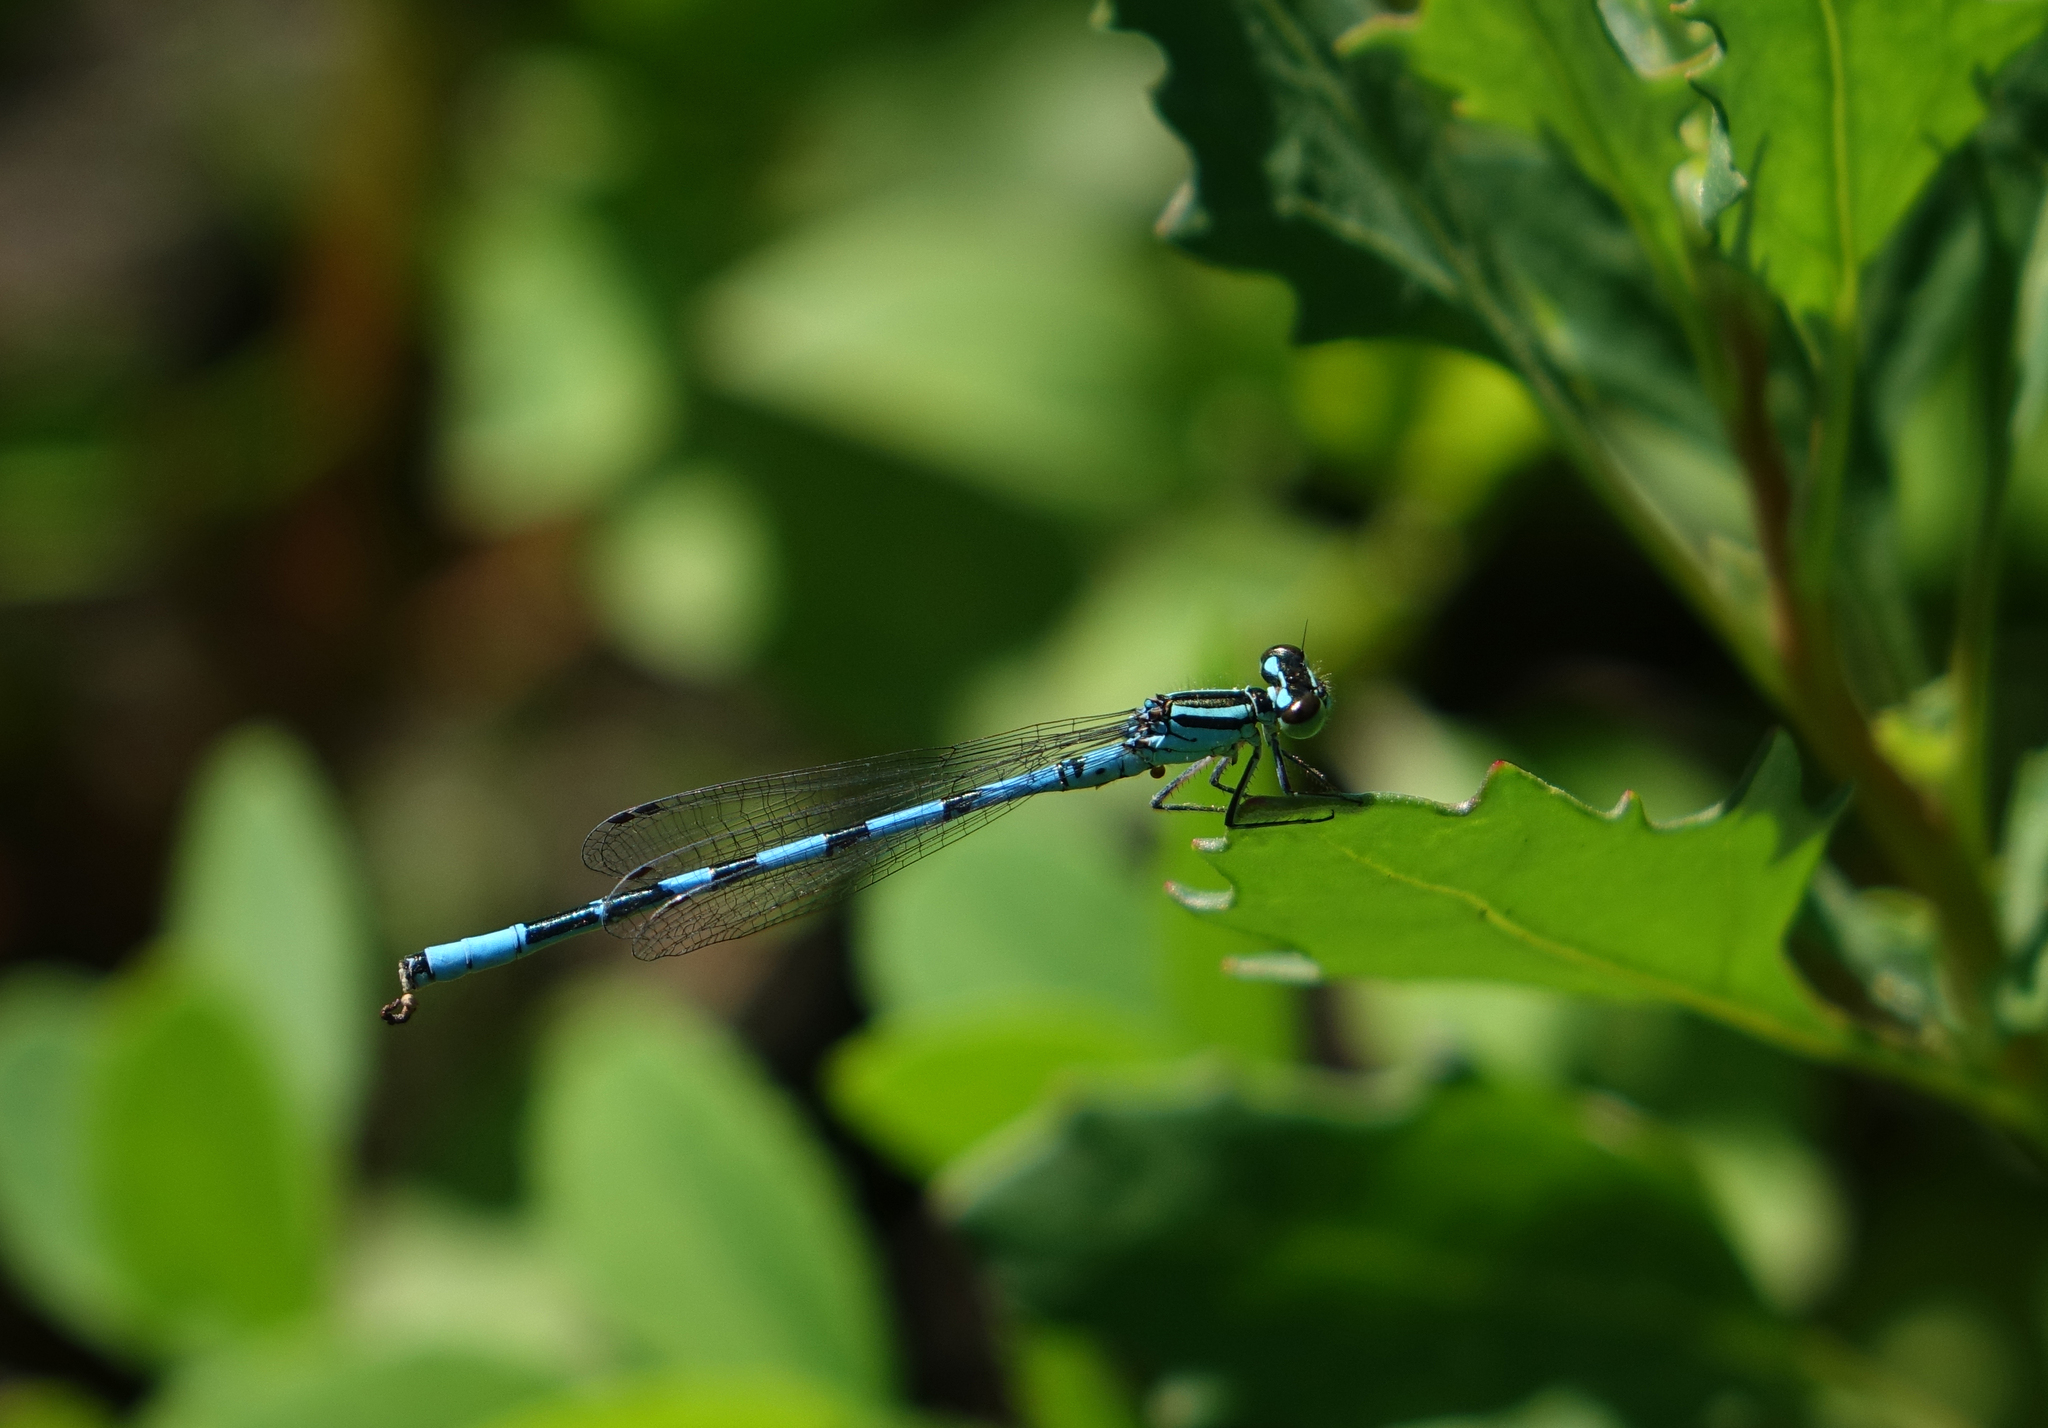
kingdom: Animalia
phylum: Arthropoda
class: Insecta
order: Odonata
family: Coenagrionidae
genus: Coenagrion
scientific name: Coenagrion hastulatum
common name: Spearhead bluet
